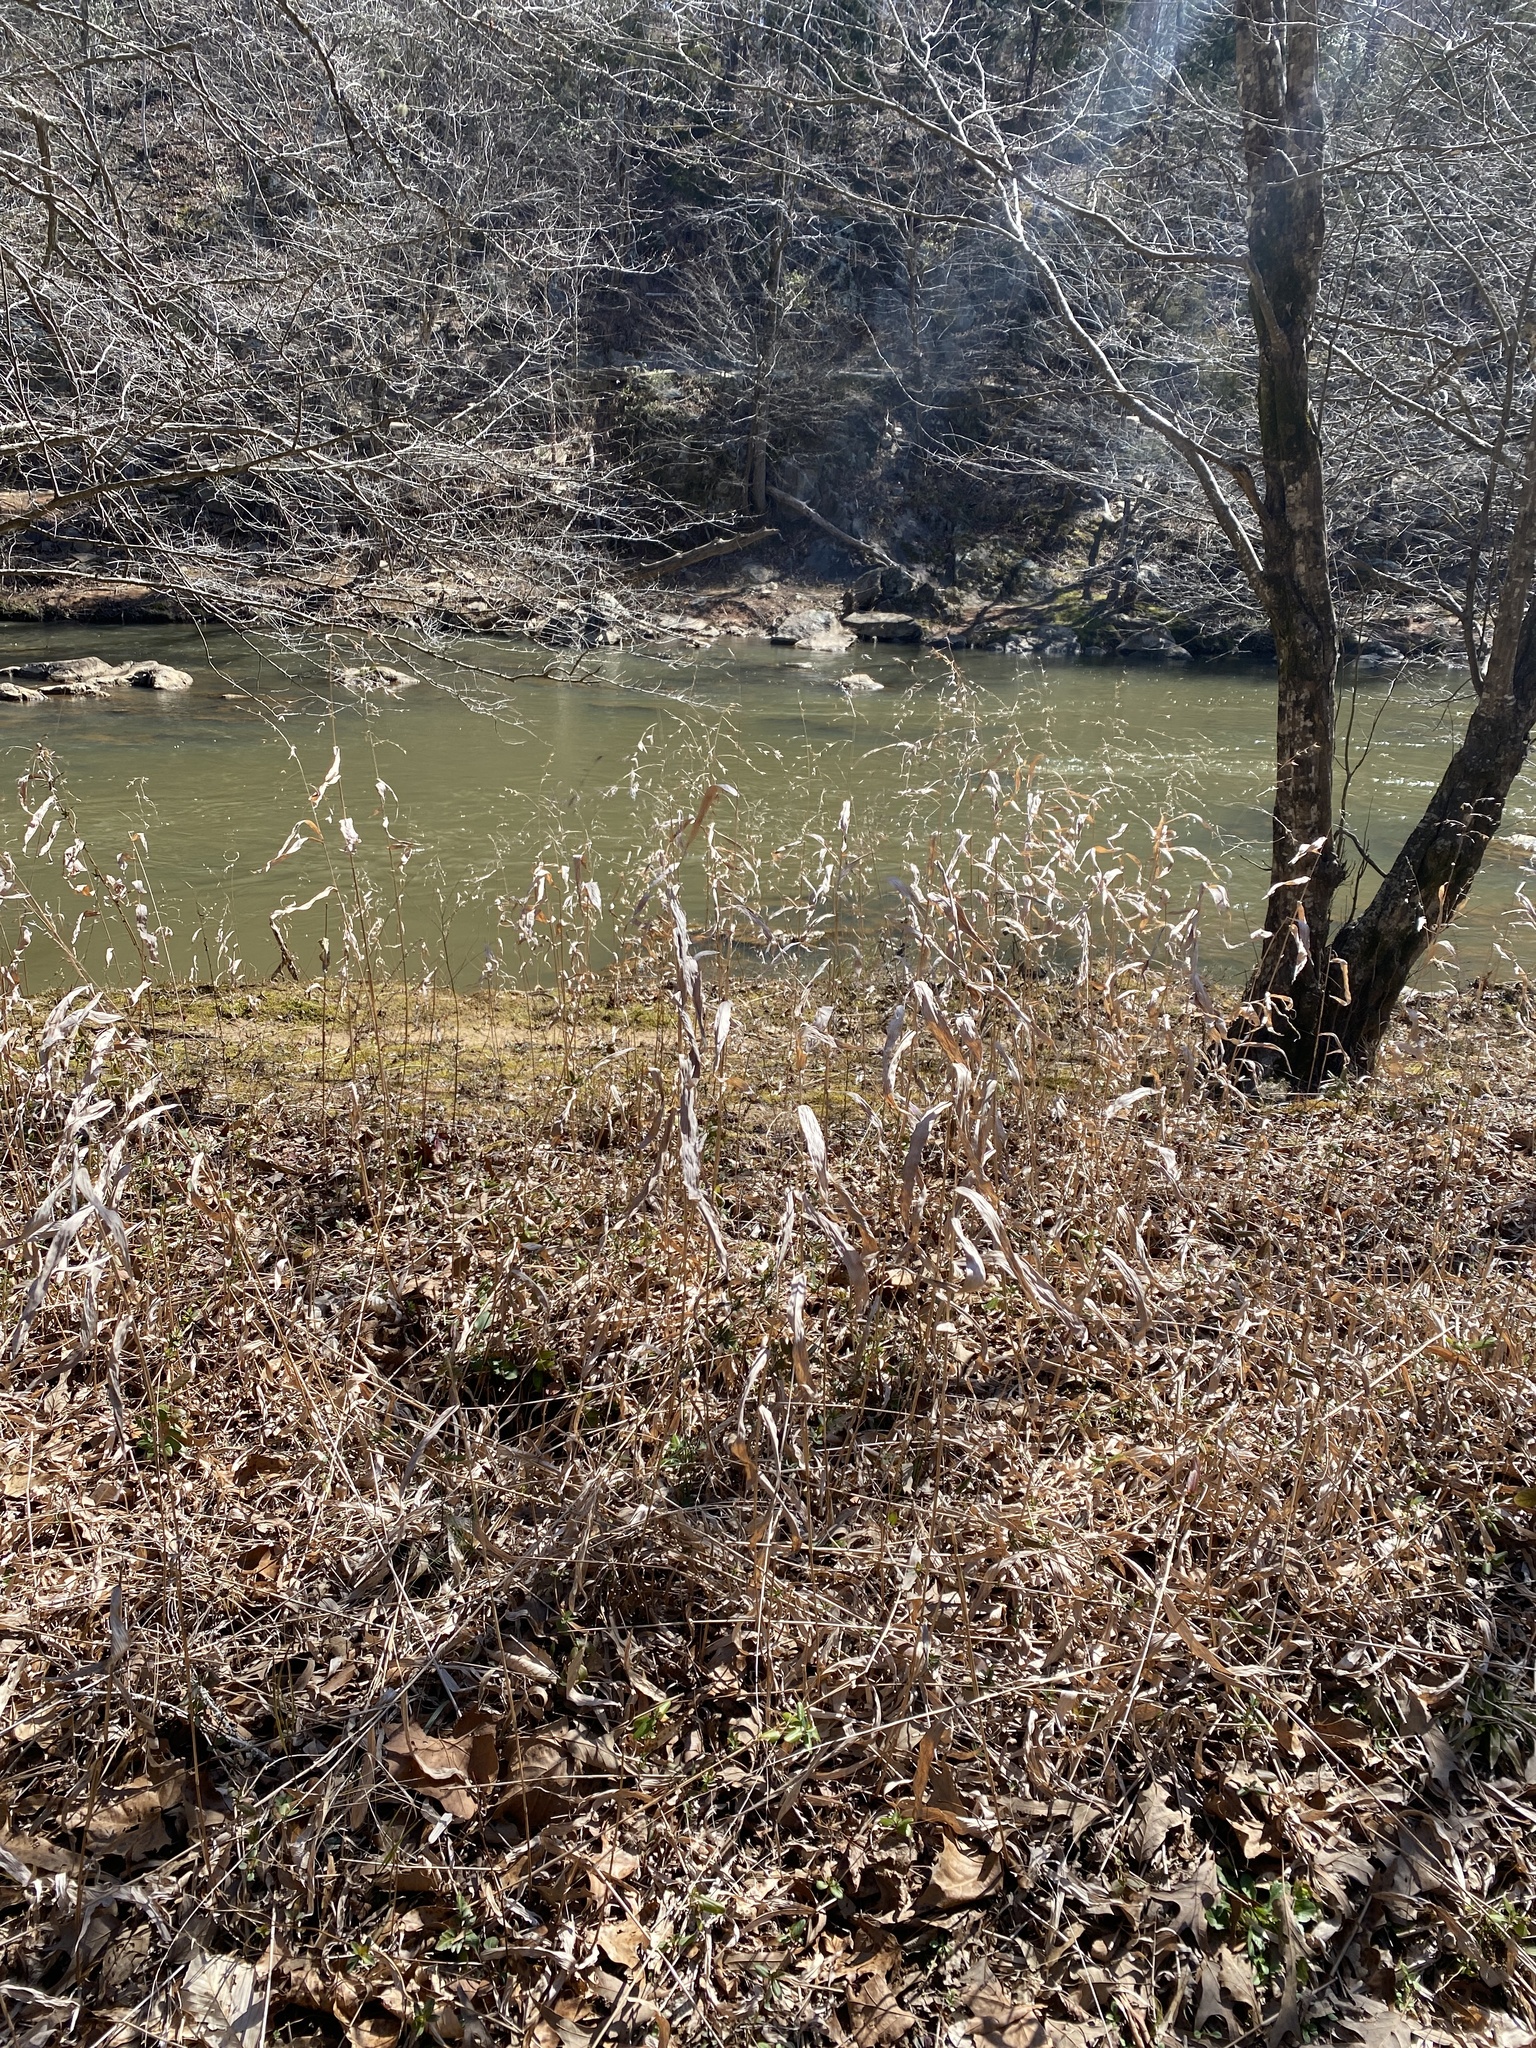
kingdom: Plantae
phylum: Tracheophyta
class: Liliopsida
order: Poales
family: Poaceae
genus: Chasmanthium
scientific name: Chasmanthium latifolium
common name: Broad-leaved chasmanthium
